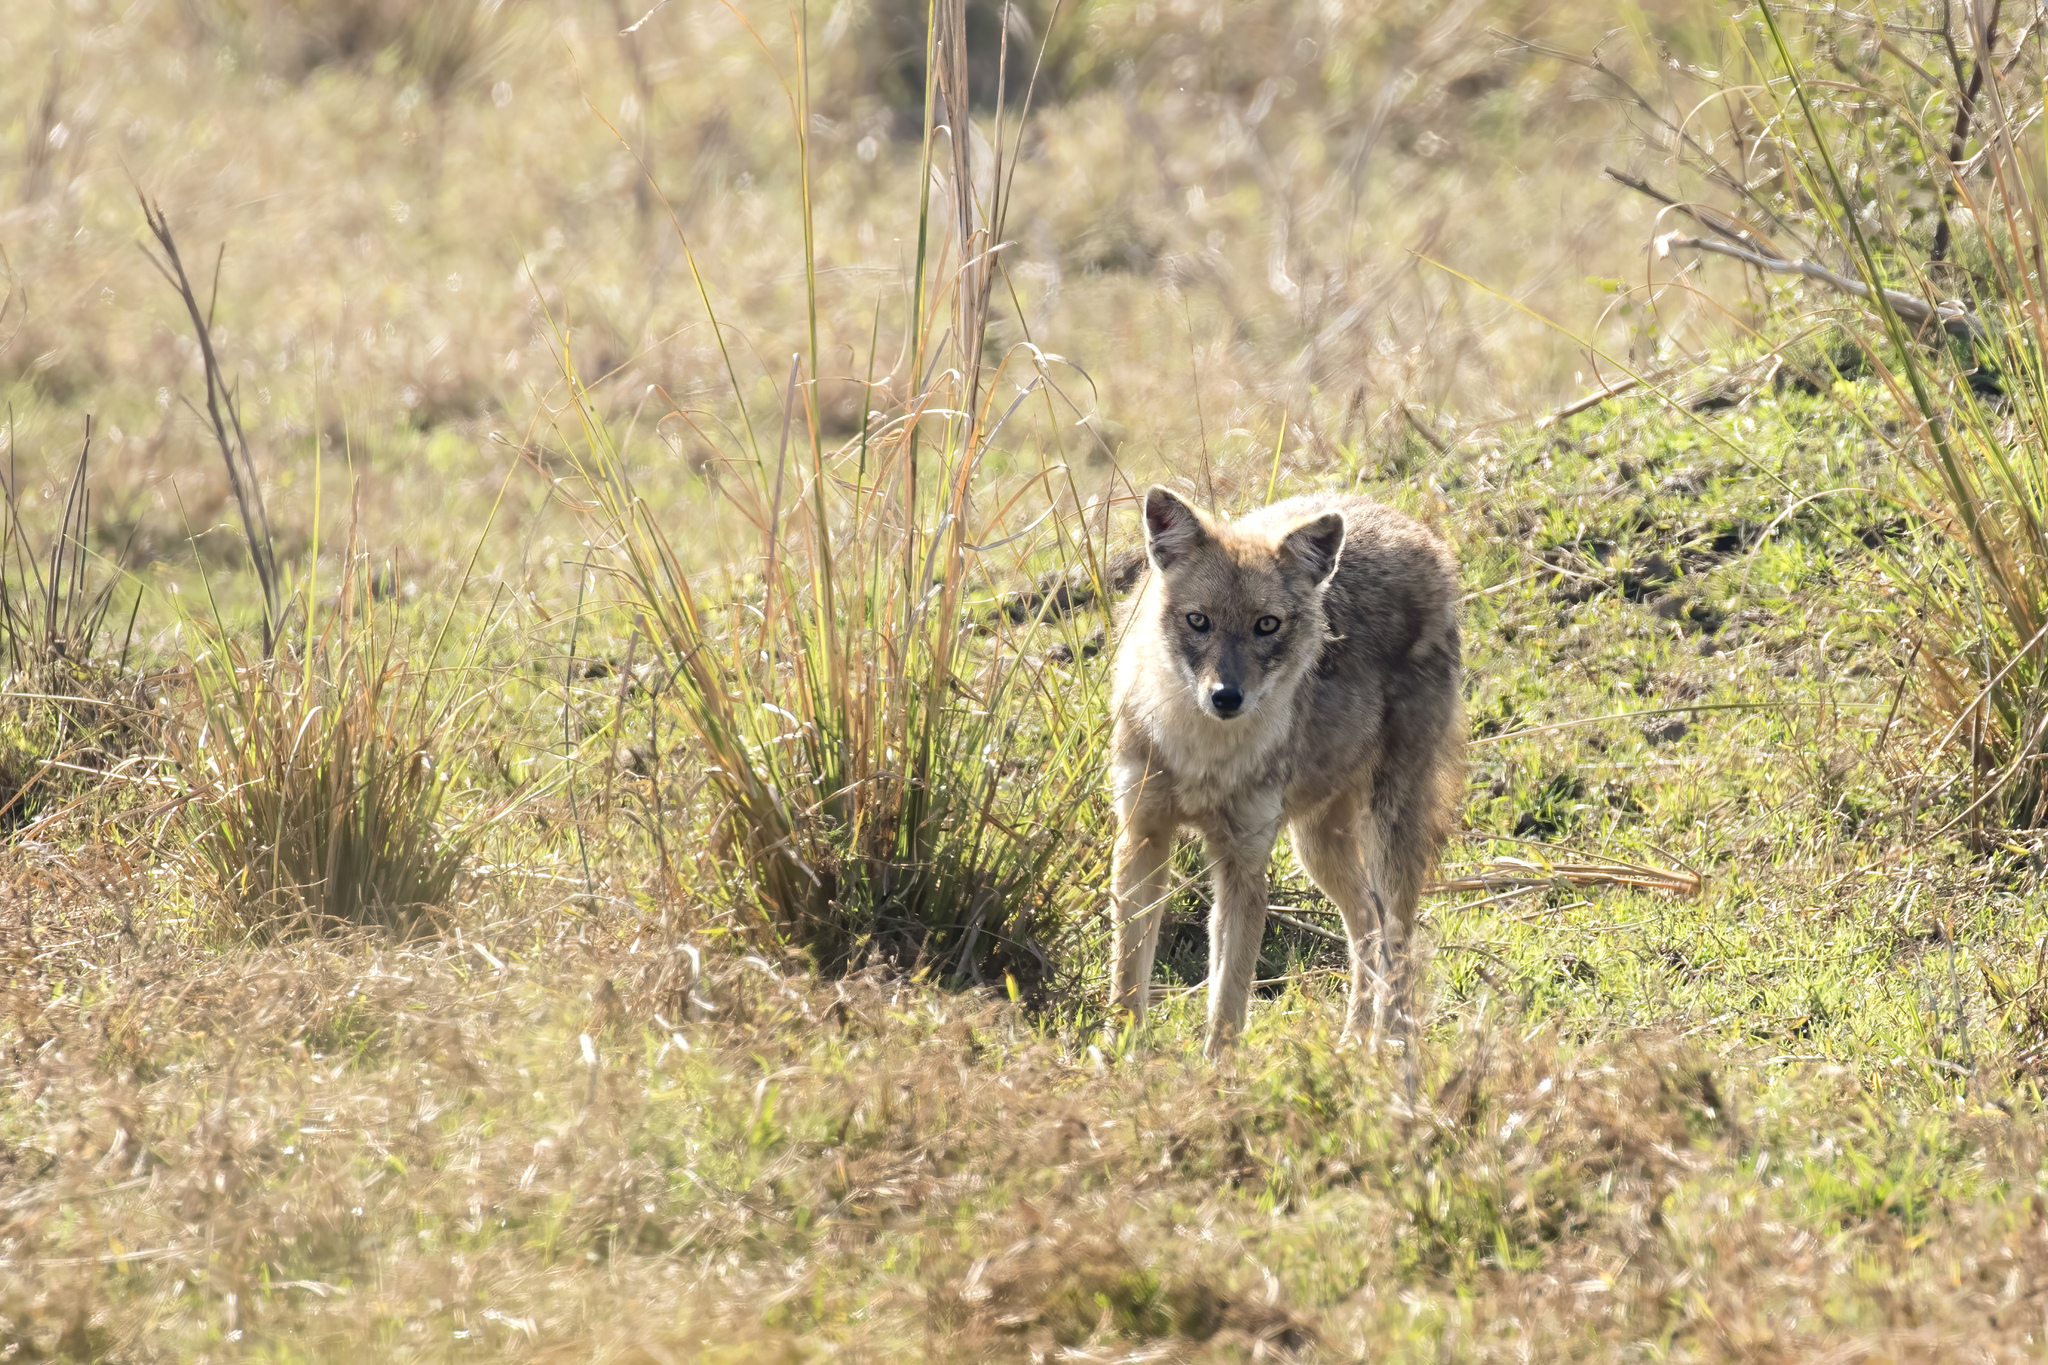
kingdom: Animalia
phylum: Chordata
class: Mammalia
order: Carnivora
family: Canidae
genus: Canis
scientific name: Canis aureus
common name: Golden jackal
